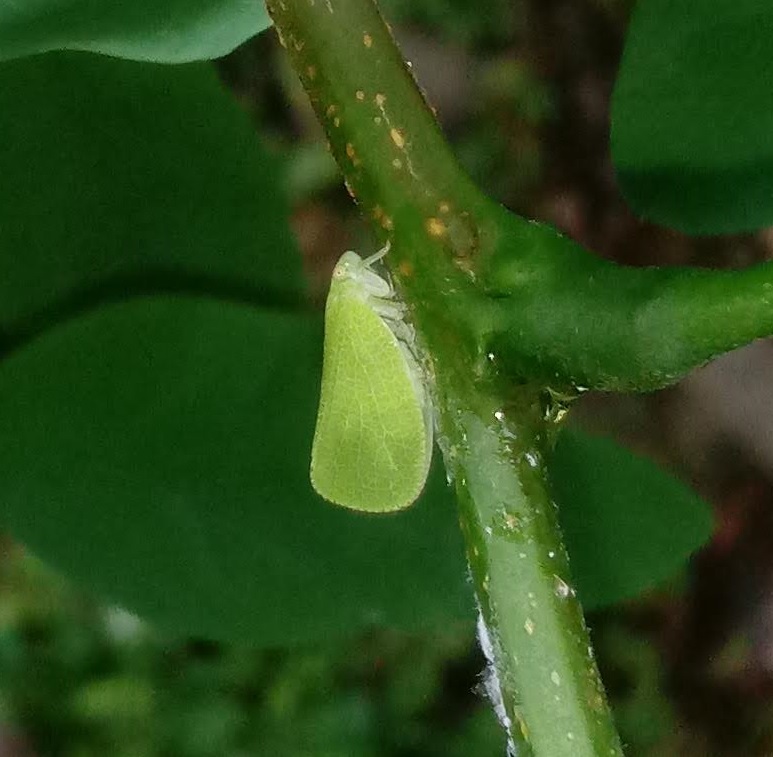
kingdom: Animalia
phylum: Arthropoda
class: Insecta
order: Hemiptera
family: Acanaloniidae
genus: Acanalonia
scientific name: Acanalonia conica
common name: Green cone-headed planthopper
